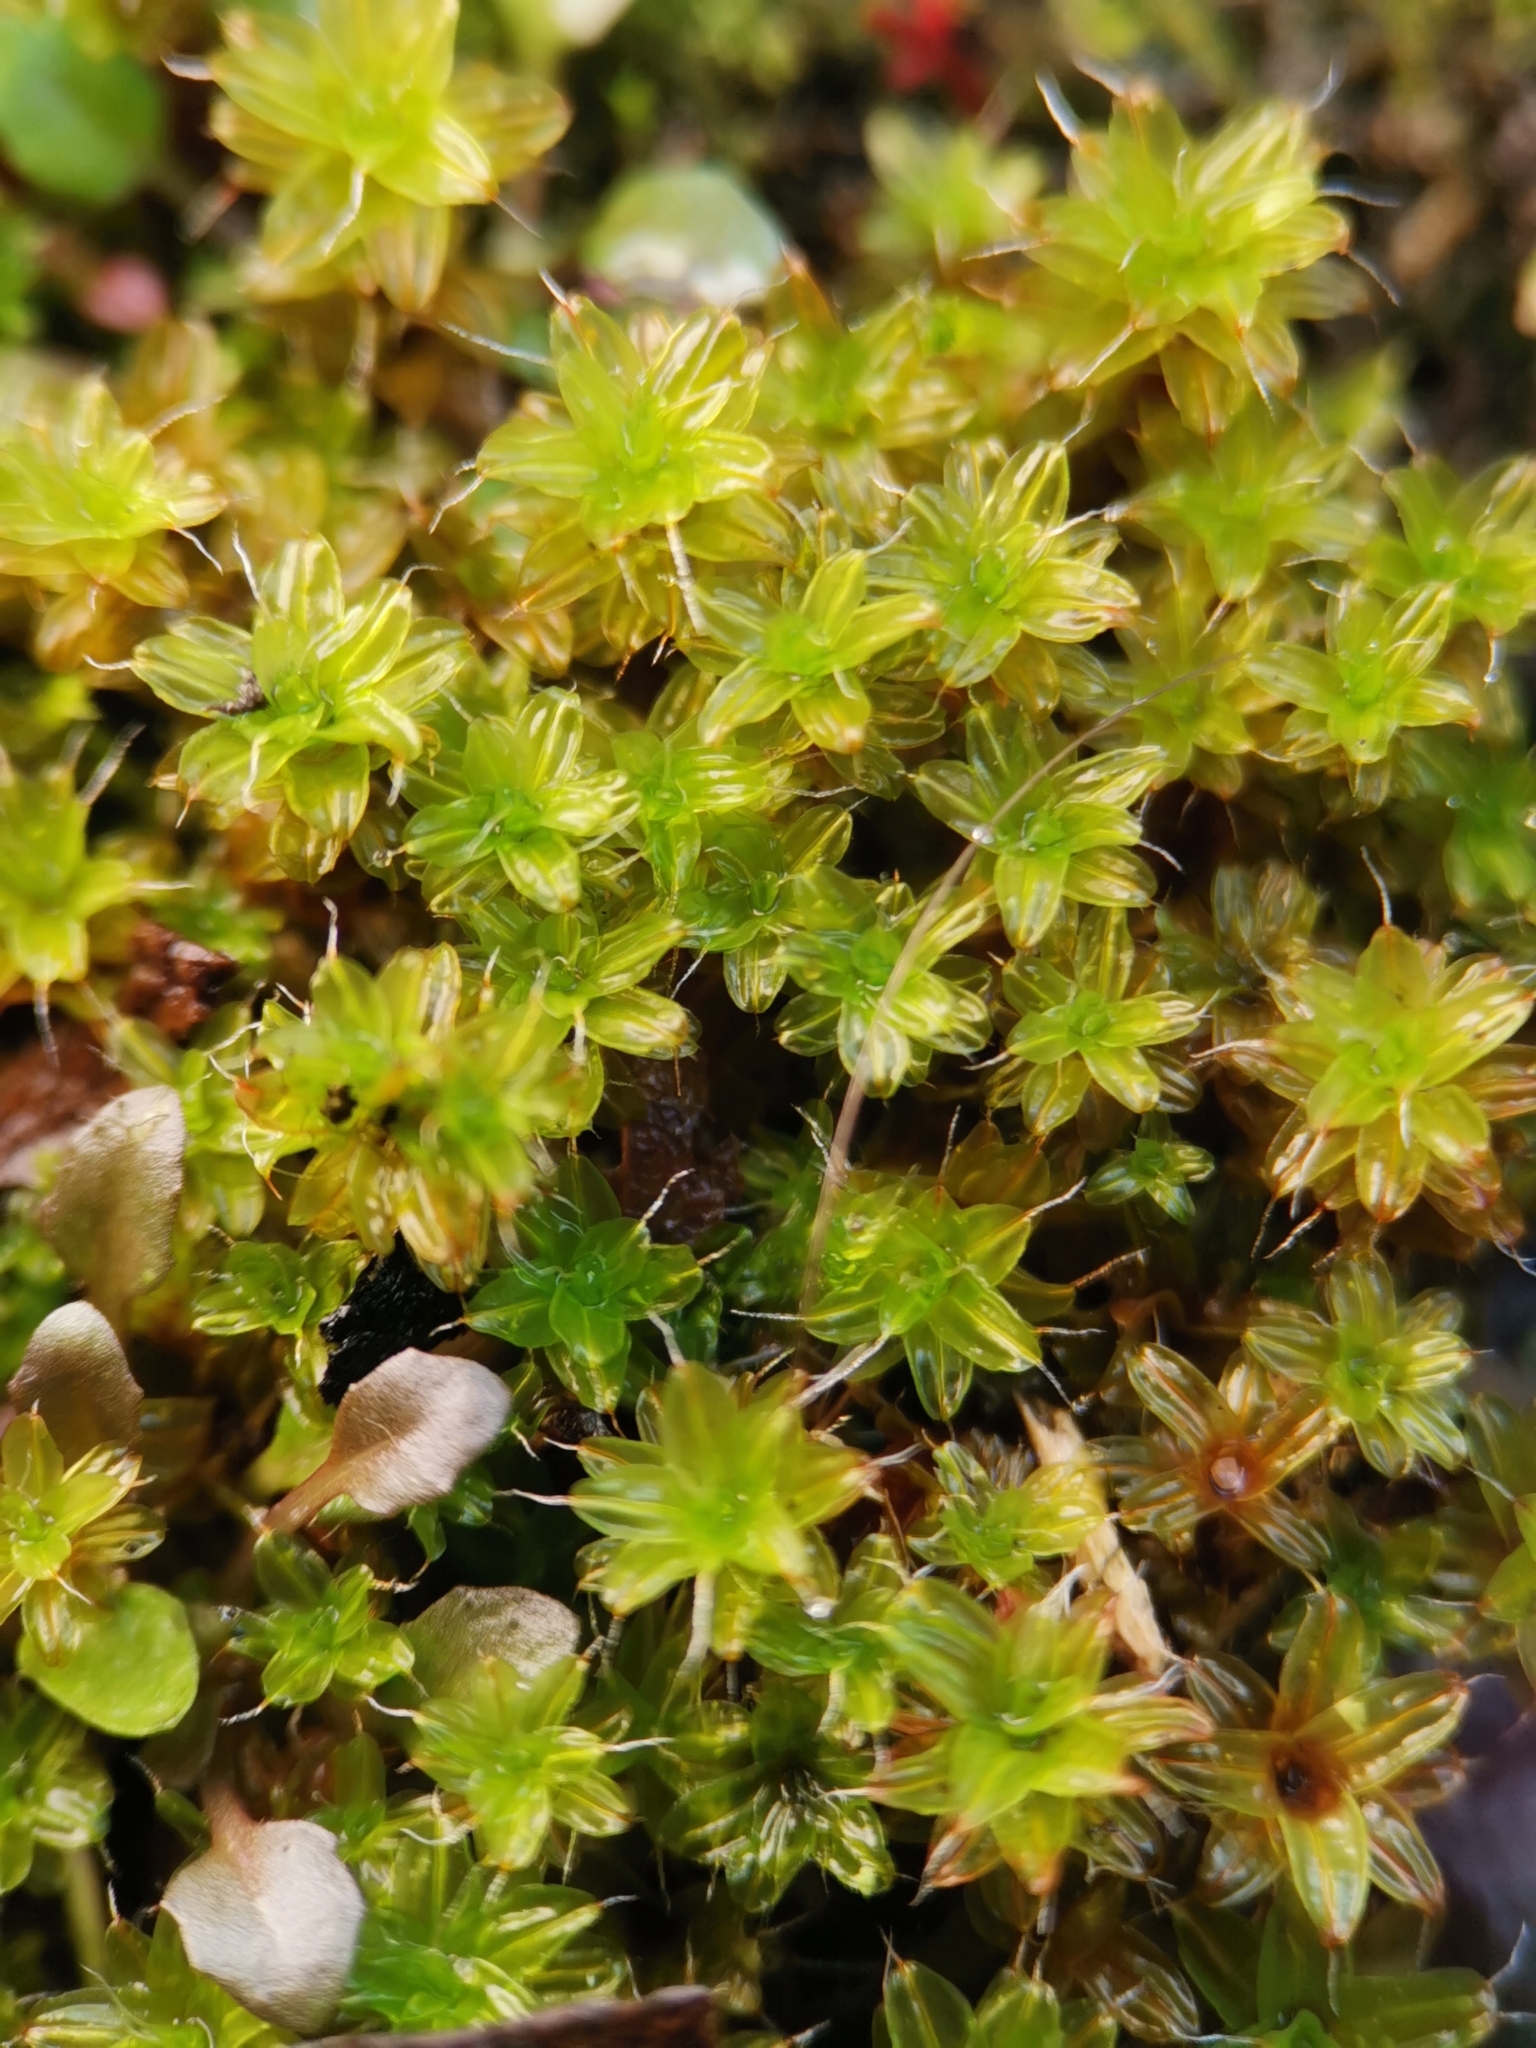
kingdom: Plantae
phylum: Bryophyta
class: Bryopsida
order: Pottiales
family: Pottiaceae
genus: Syntrichia
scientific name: Syntrichia ruralis
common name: Sidewalk screw moss
